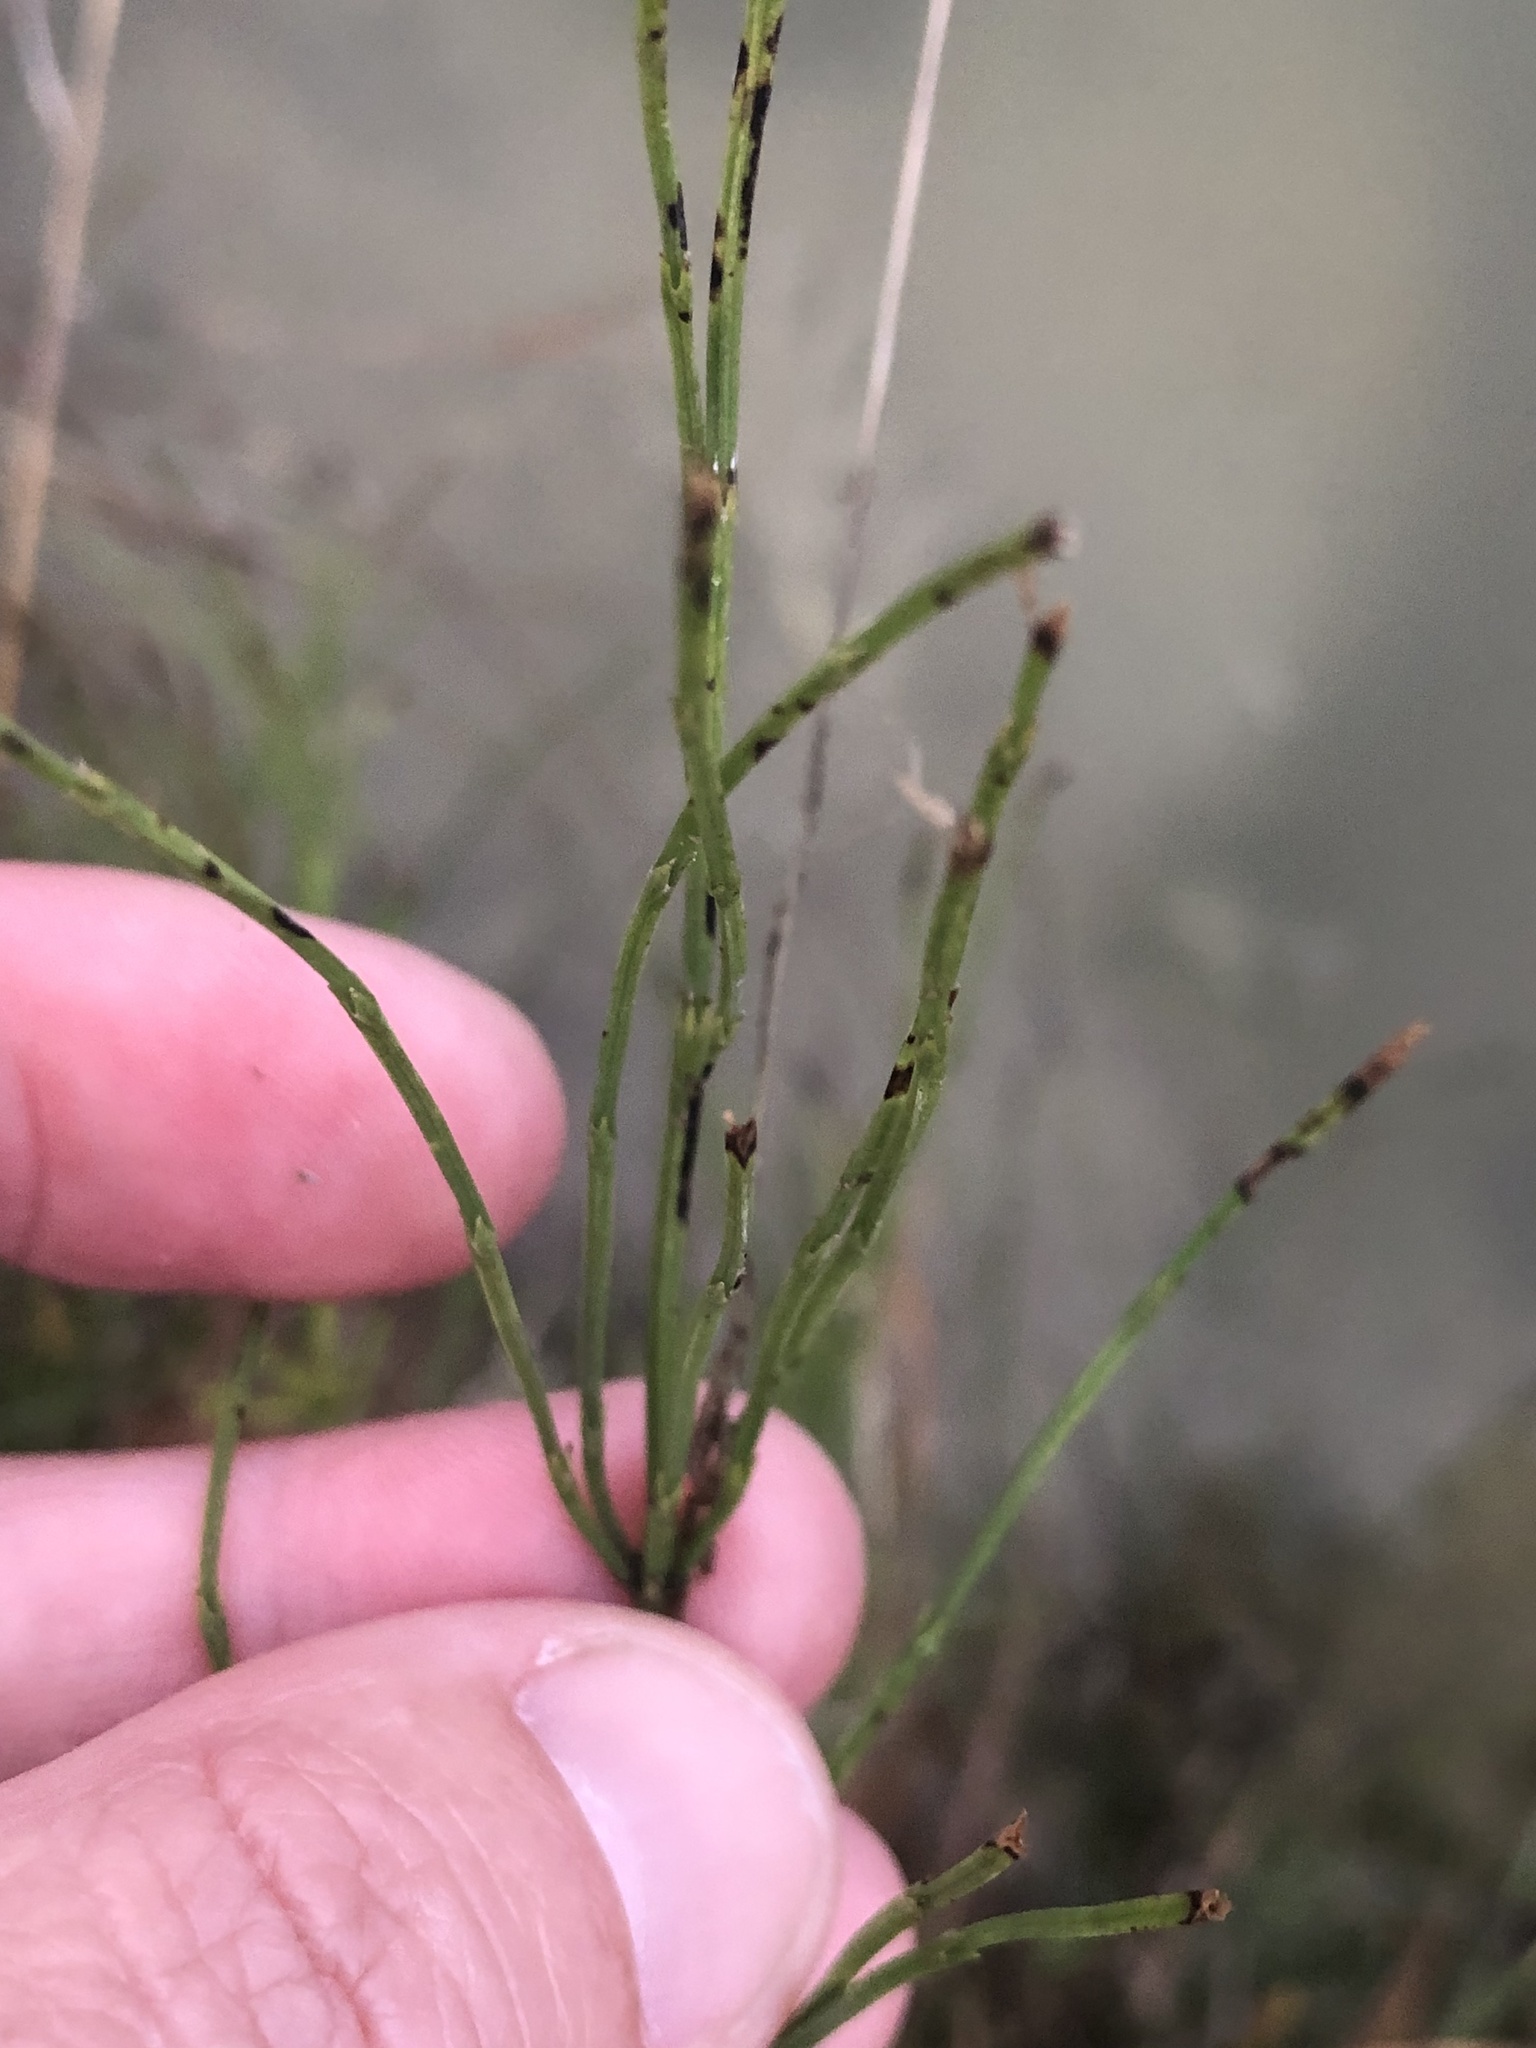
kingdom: Plantae
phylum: Tracheophyta
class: Polypodiopsida
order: Equisetales
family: Equisetaceae
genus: Equisetum
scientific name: Equisetum arvense
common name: Field horsetail
